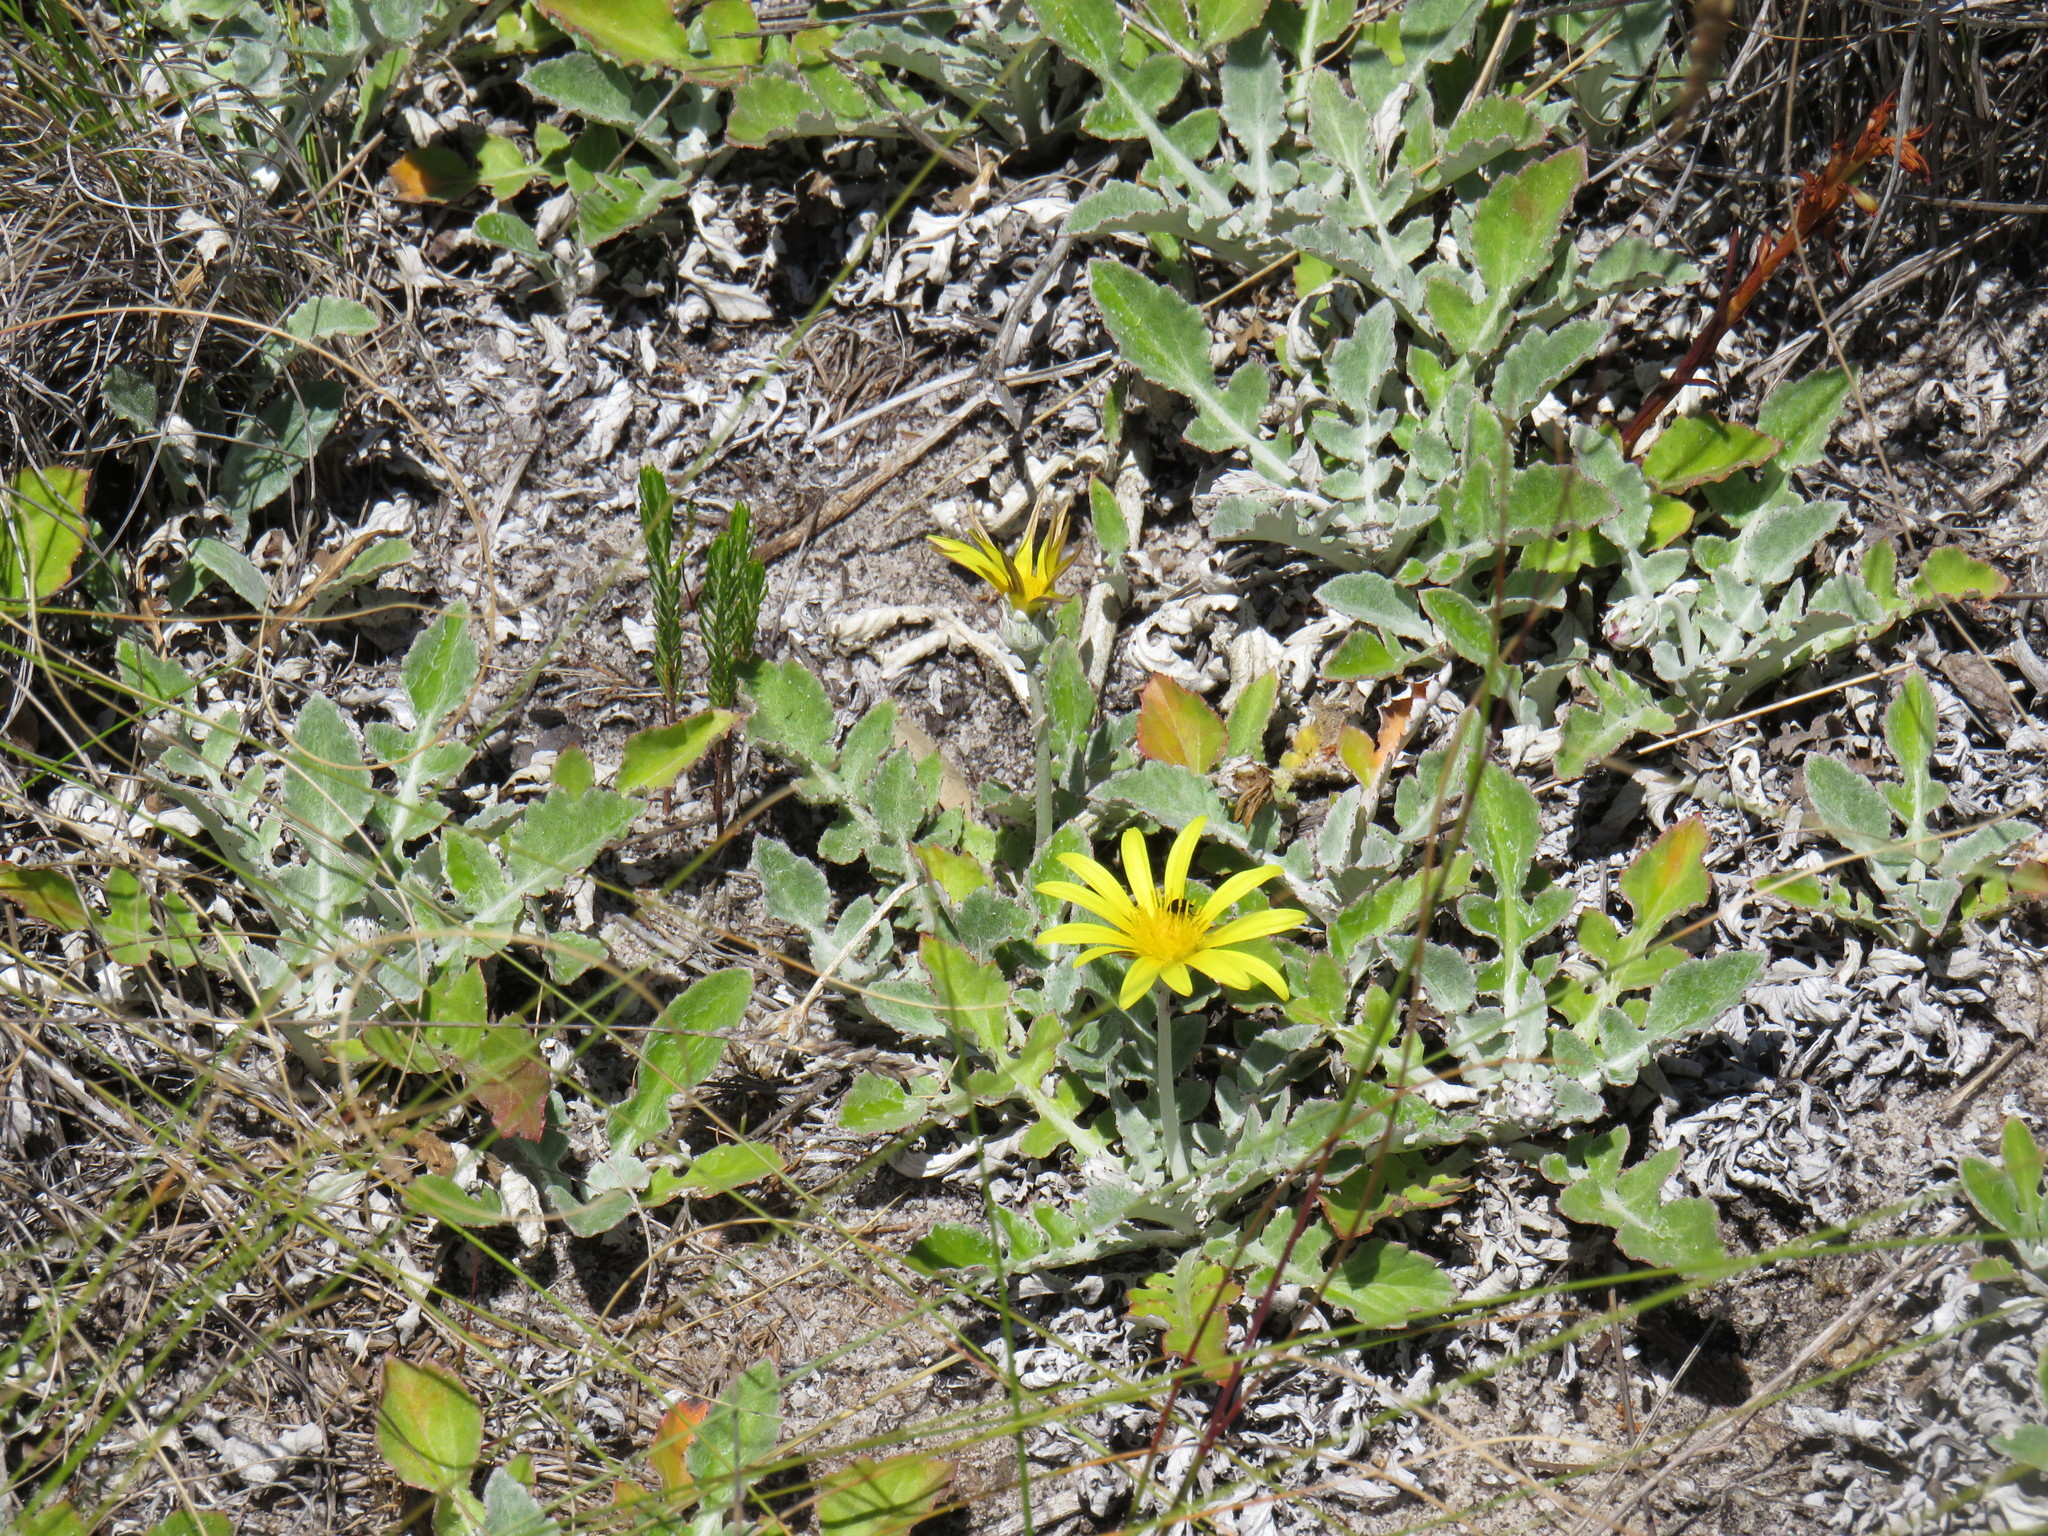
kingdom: Plantae
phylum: Tracheophyta
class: Magnoliopsida
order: Asterales
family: Asteraceae
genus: Arctotheca
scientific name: Arctotheca prostrata
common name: Capeweed
